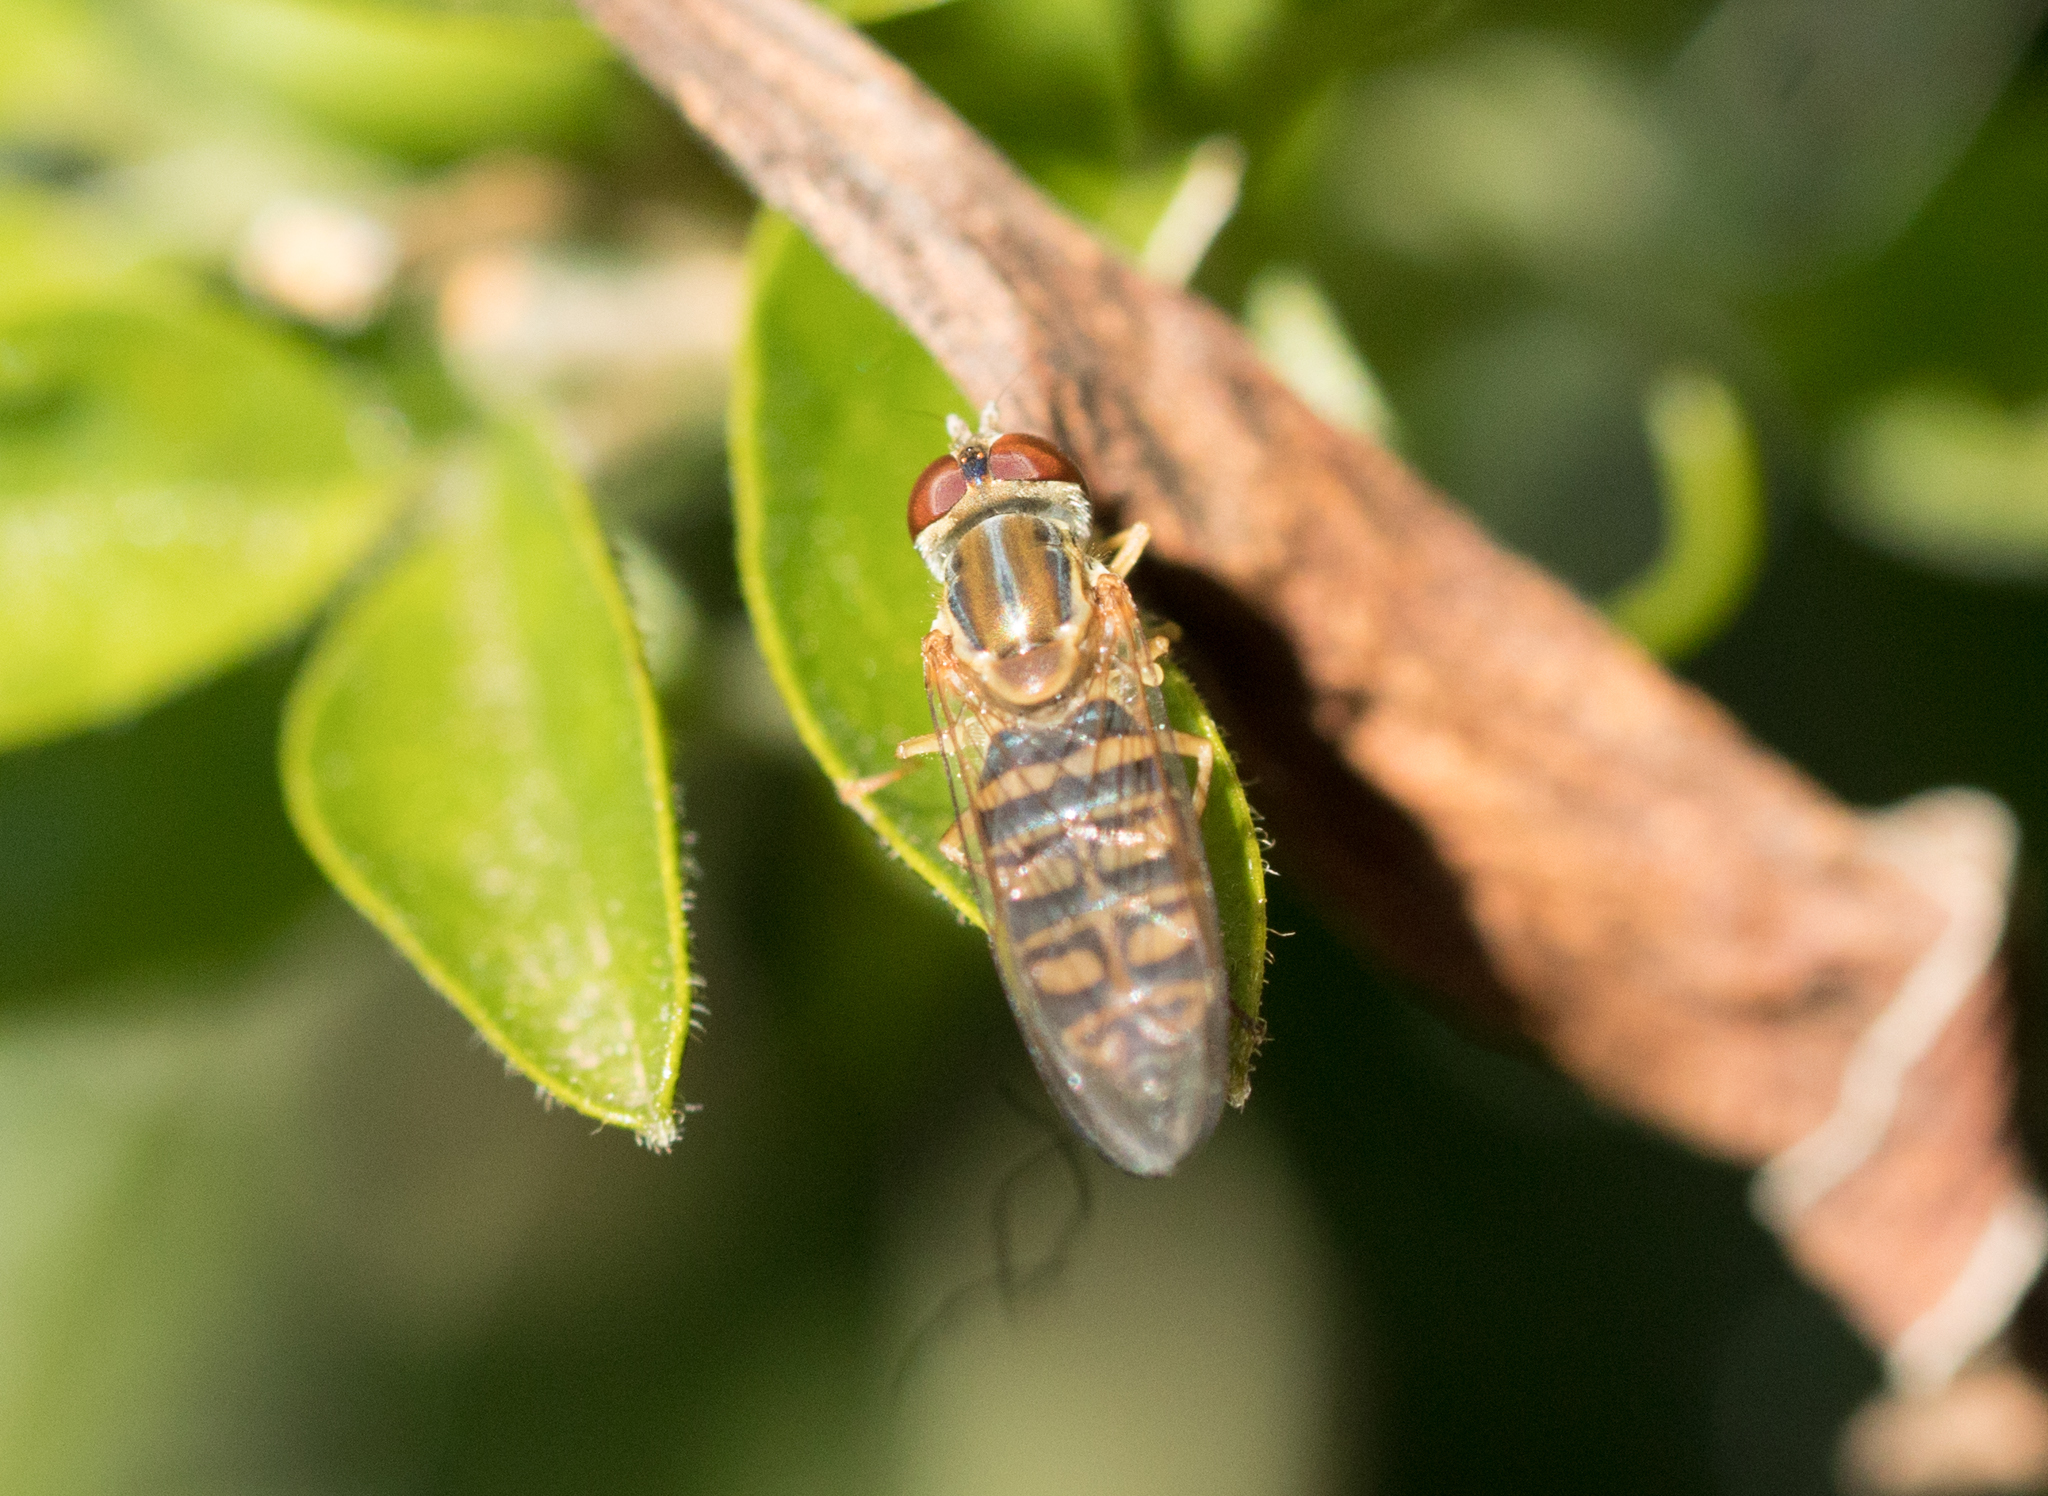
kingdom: Animalia
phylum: Arthropoda
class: Insecta
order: Diptera
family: Syrphidae
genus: Toxomerus
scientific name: Toxomerus politus
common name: Maize calligrapher
